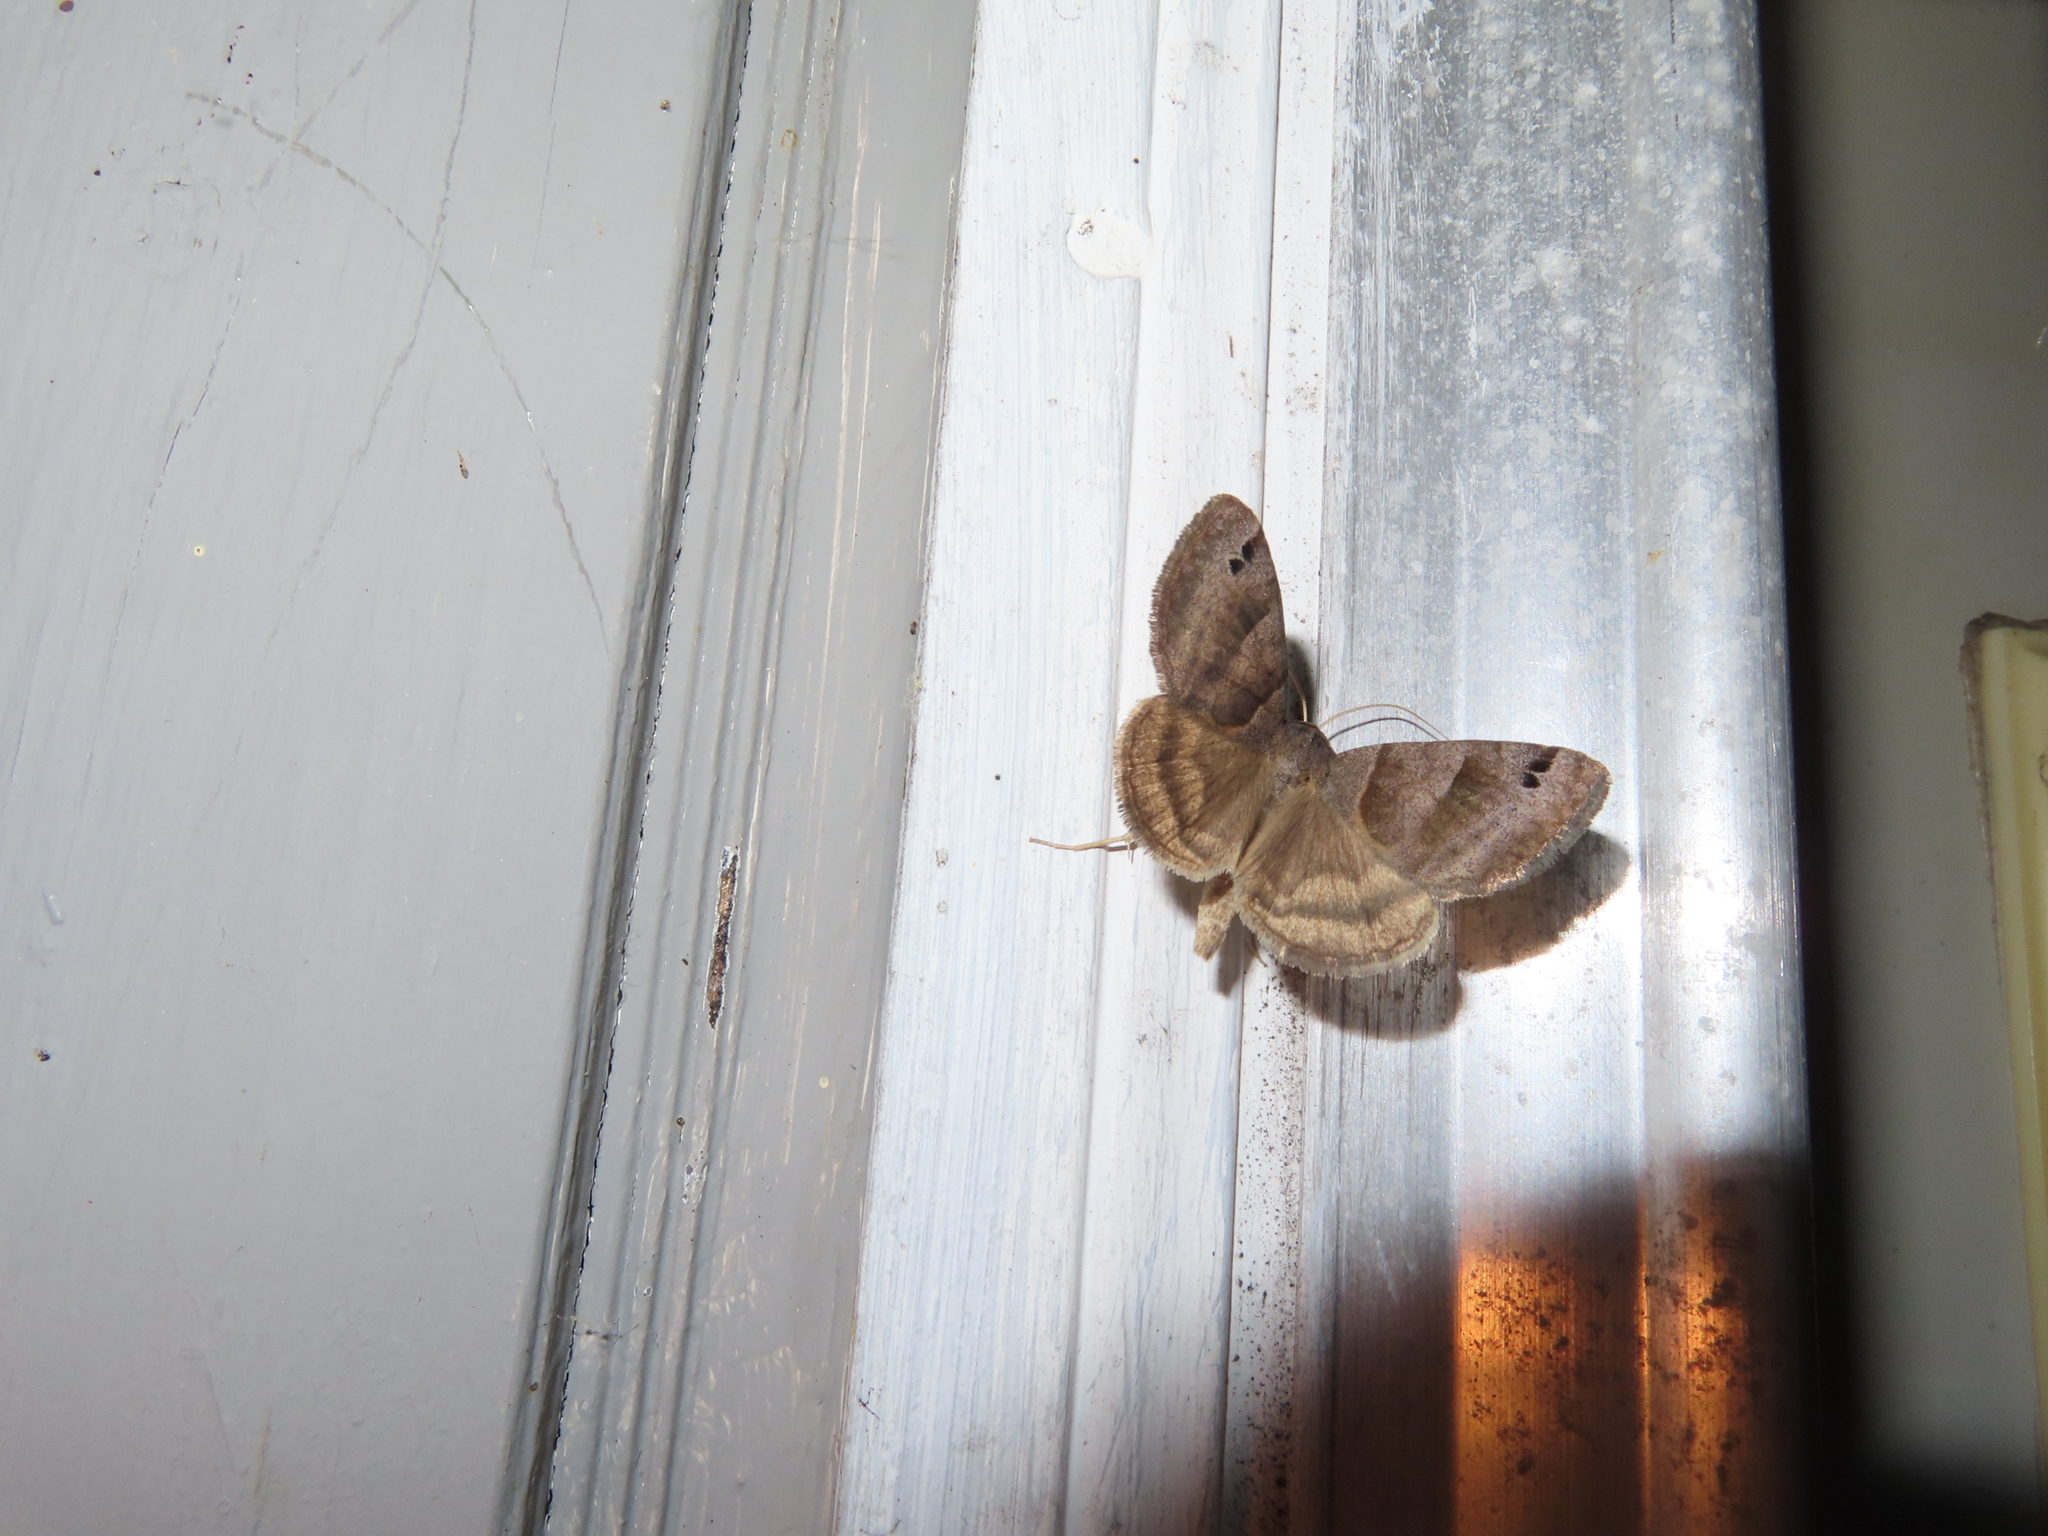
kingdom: Animalia
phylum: Arthropoda
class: Insecta
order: Lepidoptera
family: Erebidae
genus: Caenurgina
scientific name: Caenurgina crassiuscula
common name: Double-barred
